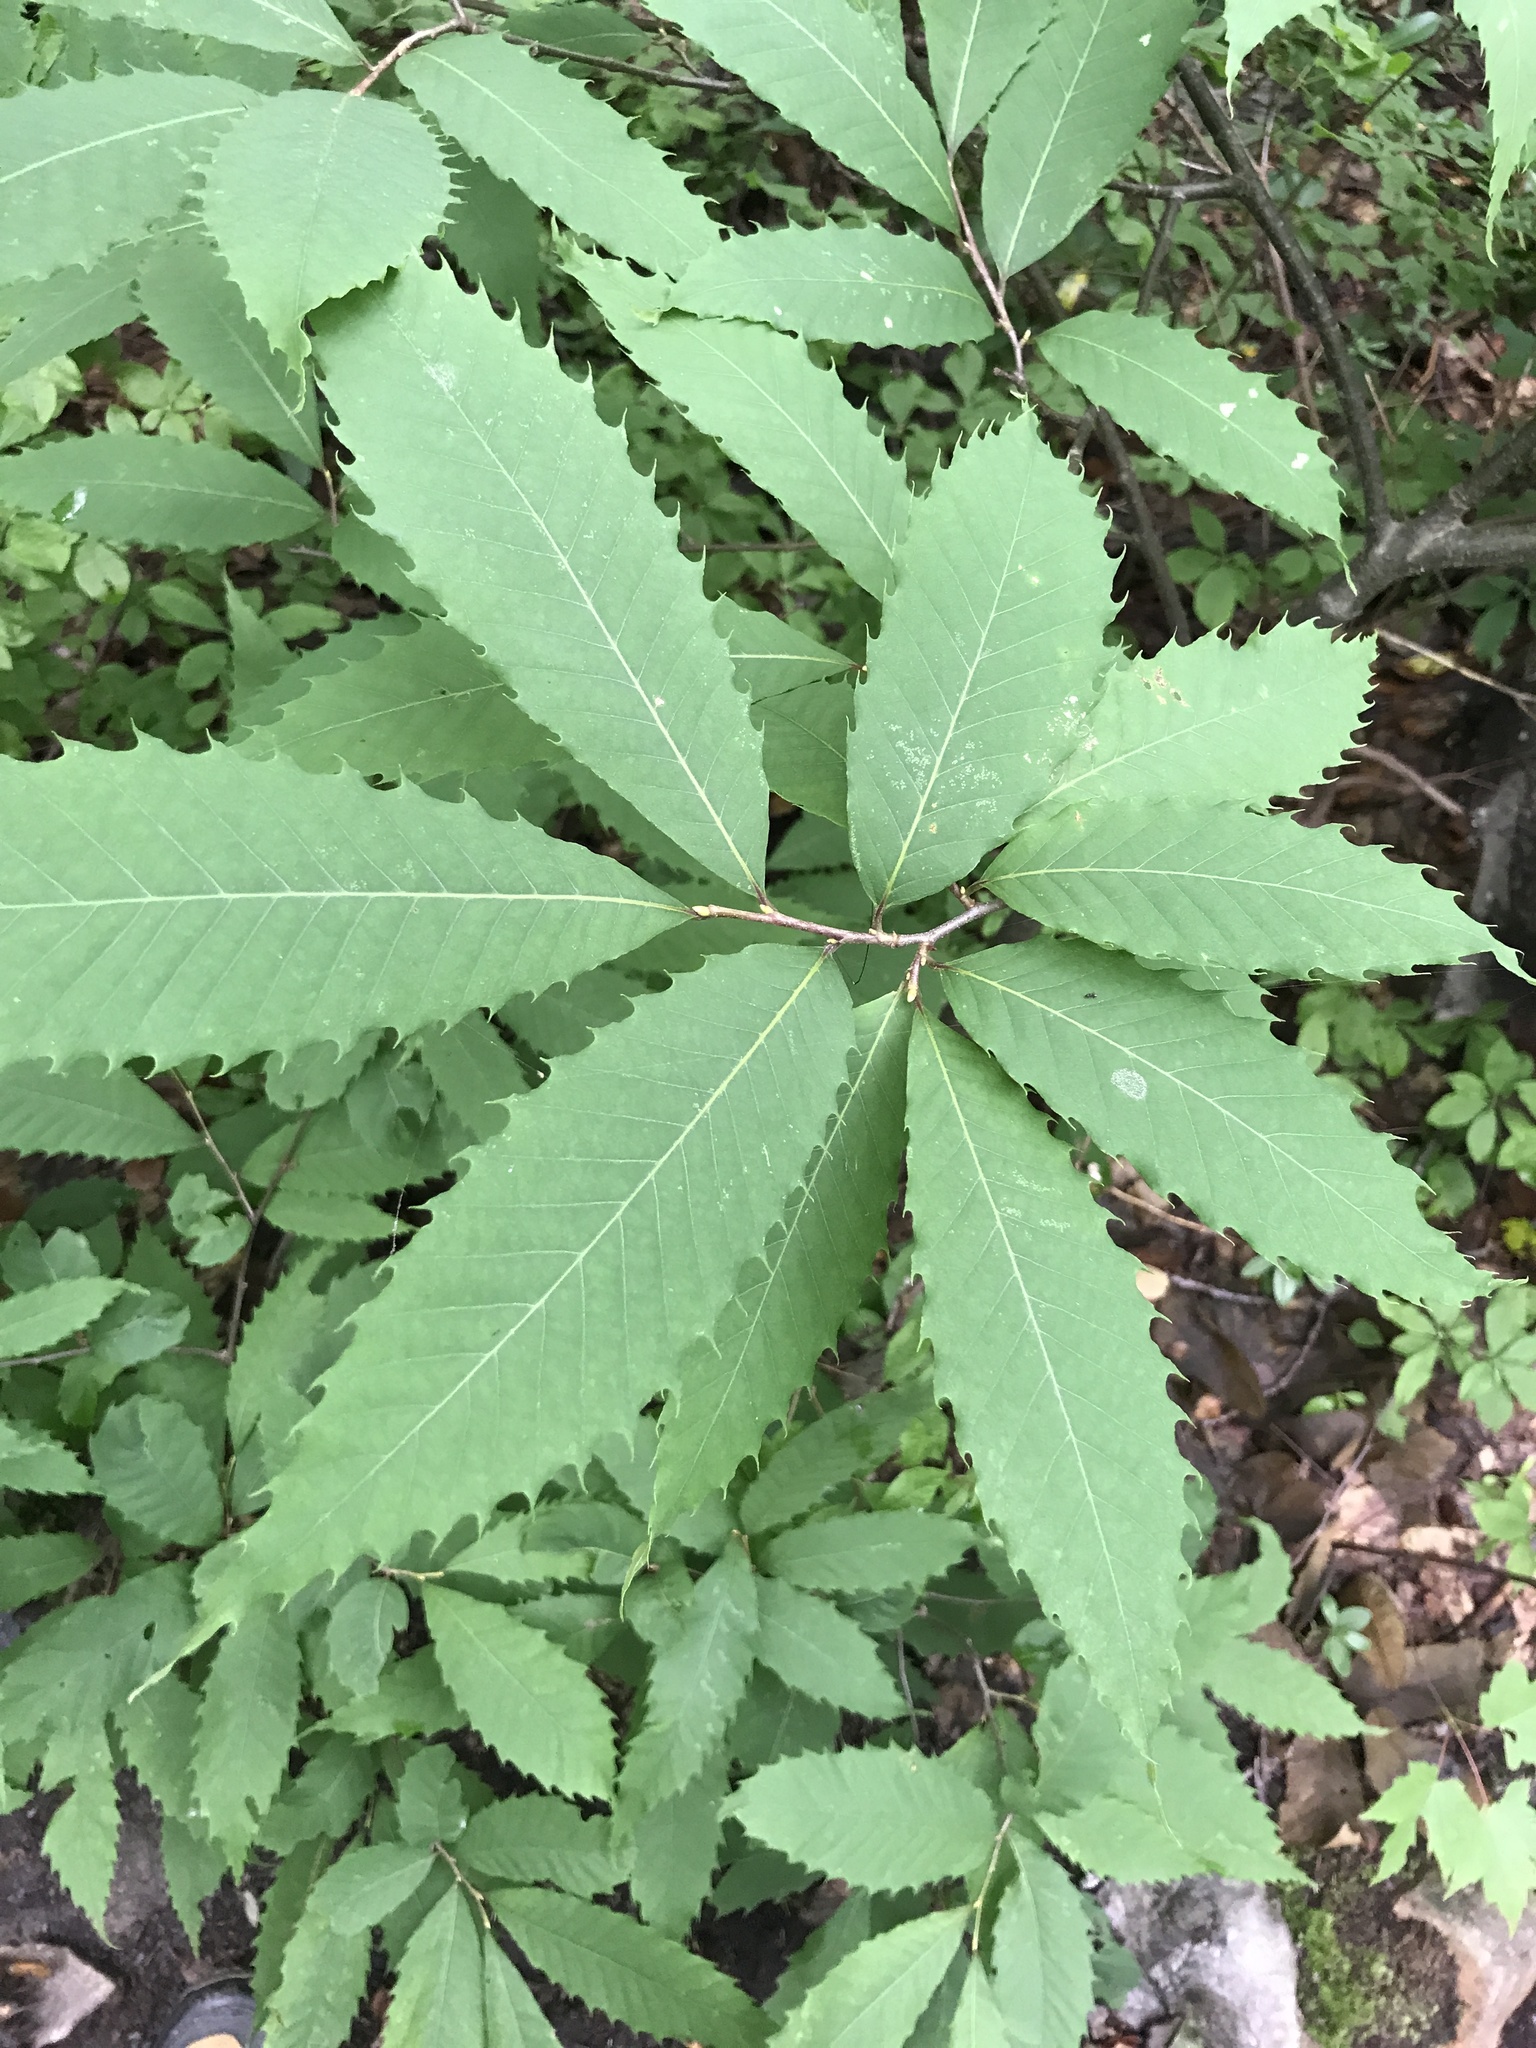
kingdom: Plantae
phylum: Tracheophyta
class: Magnoliopsida
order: Fagales
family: Fagaceae
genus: Castanea
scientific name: Castanea dentata
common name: American chestnut
